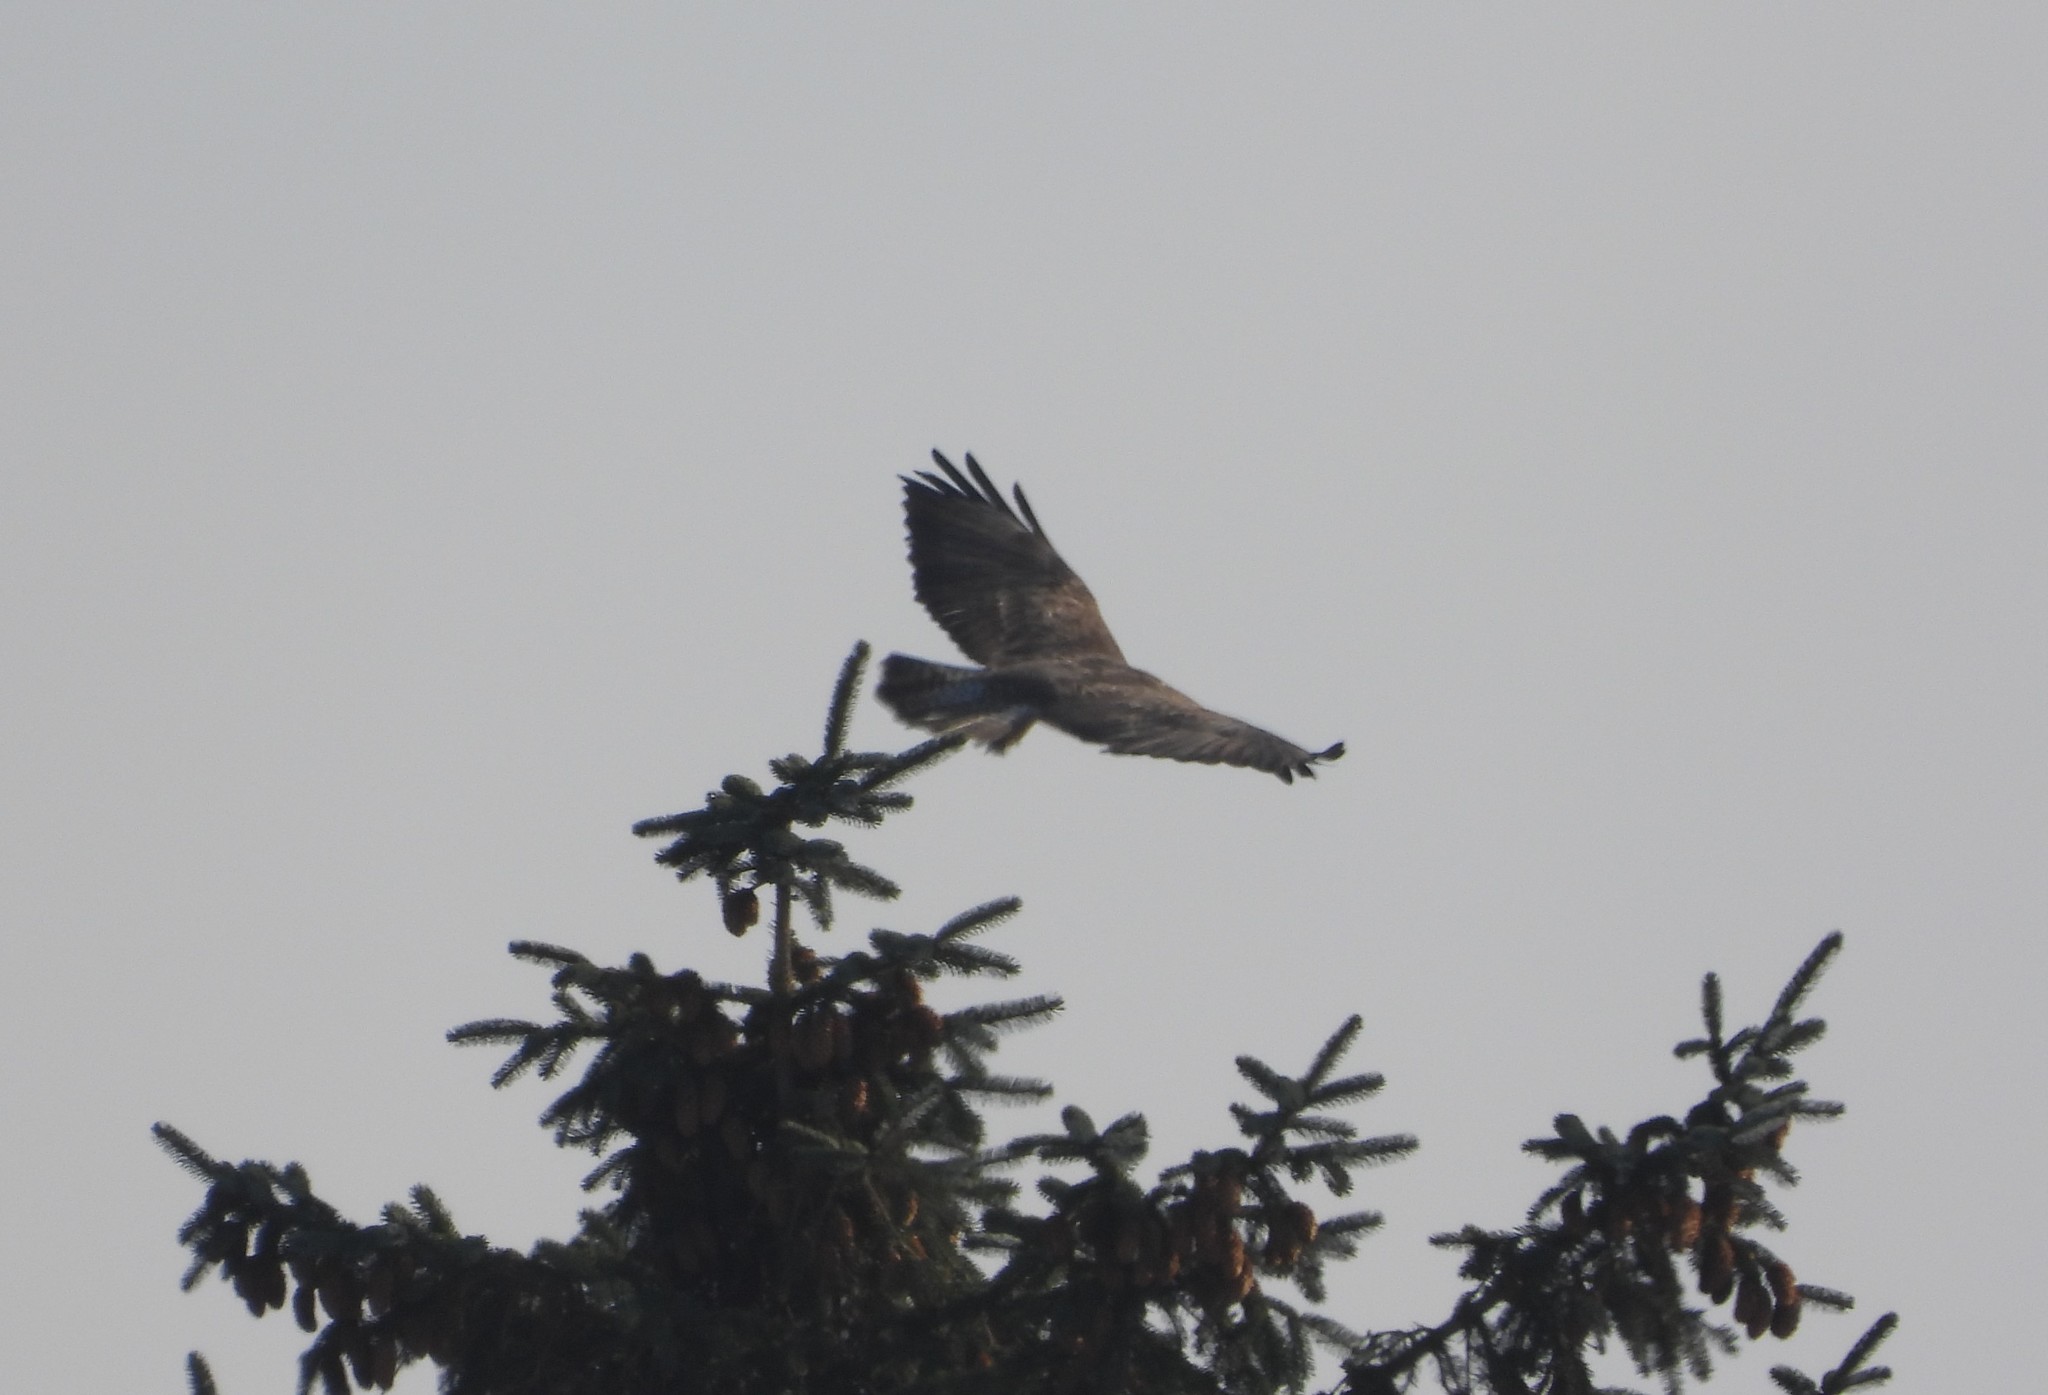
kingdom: Animalia
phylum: Chordata
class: Aves
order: Accipitriformes
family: Accipitridae
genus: Buteo
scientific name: Buteo buteo
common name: Common buzzard
